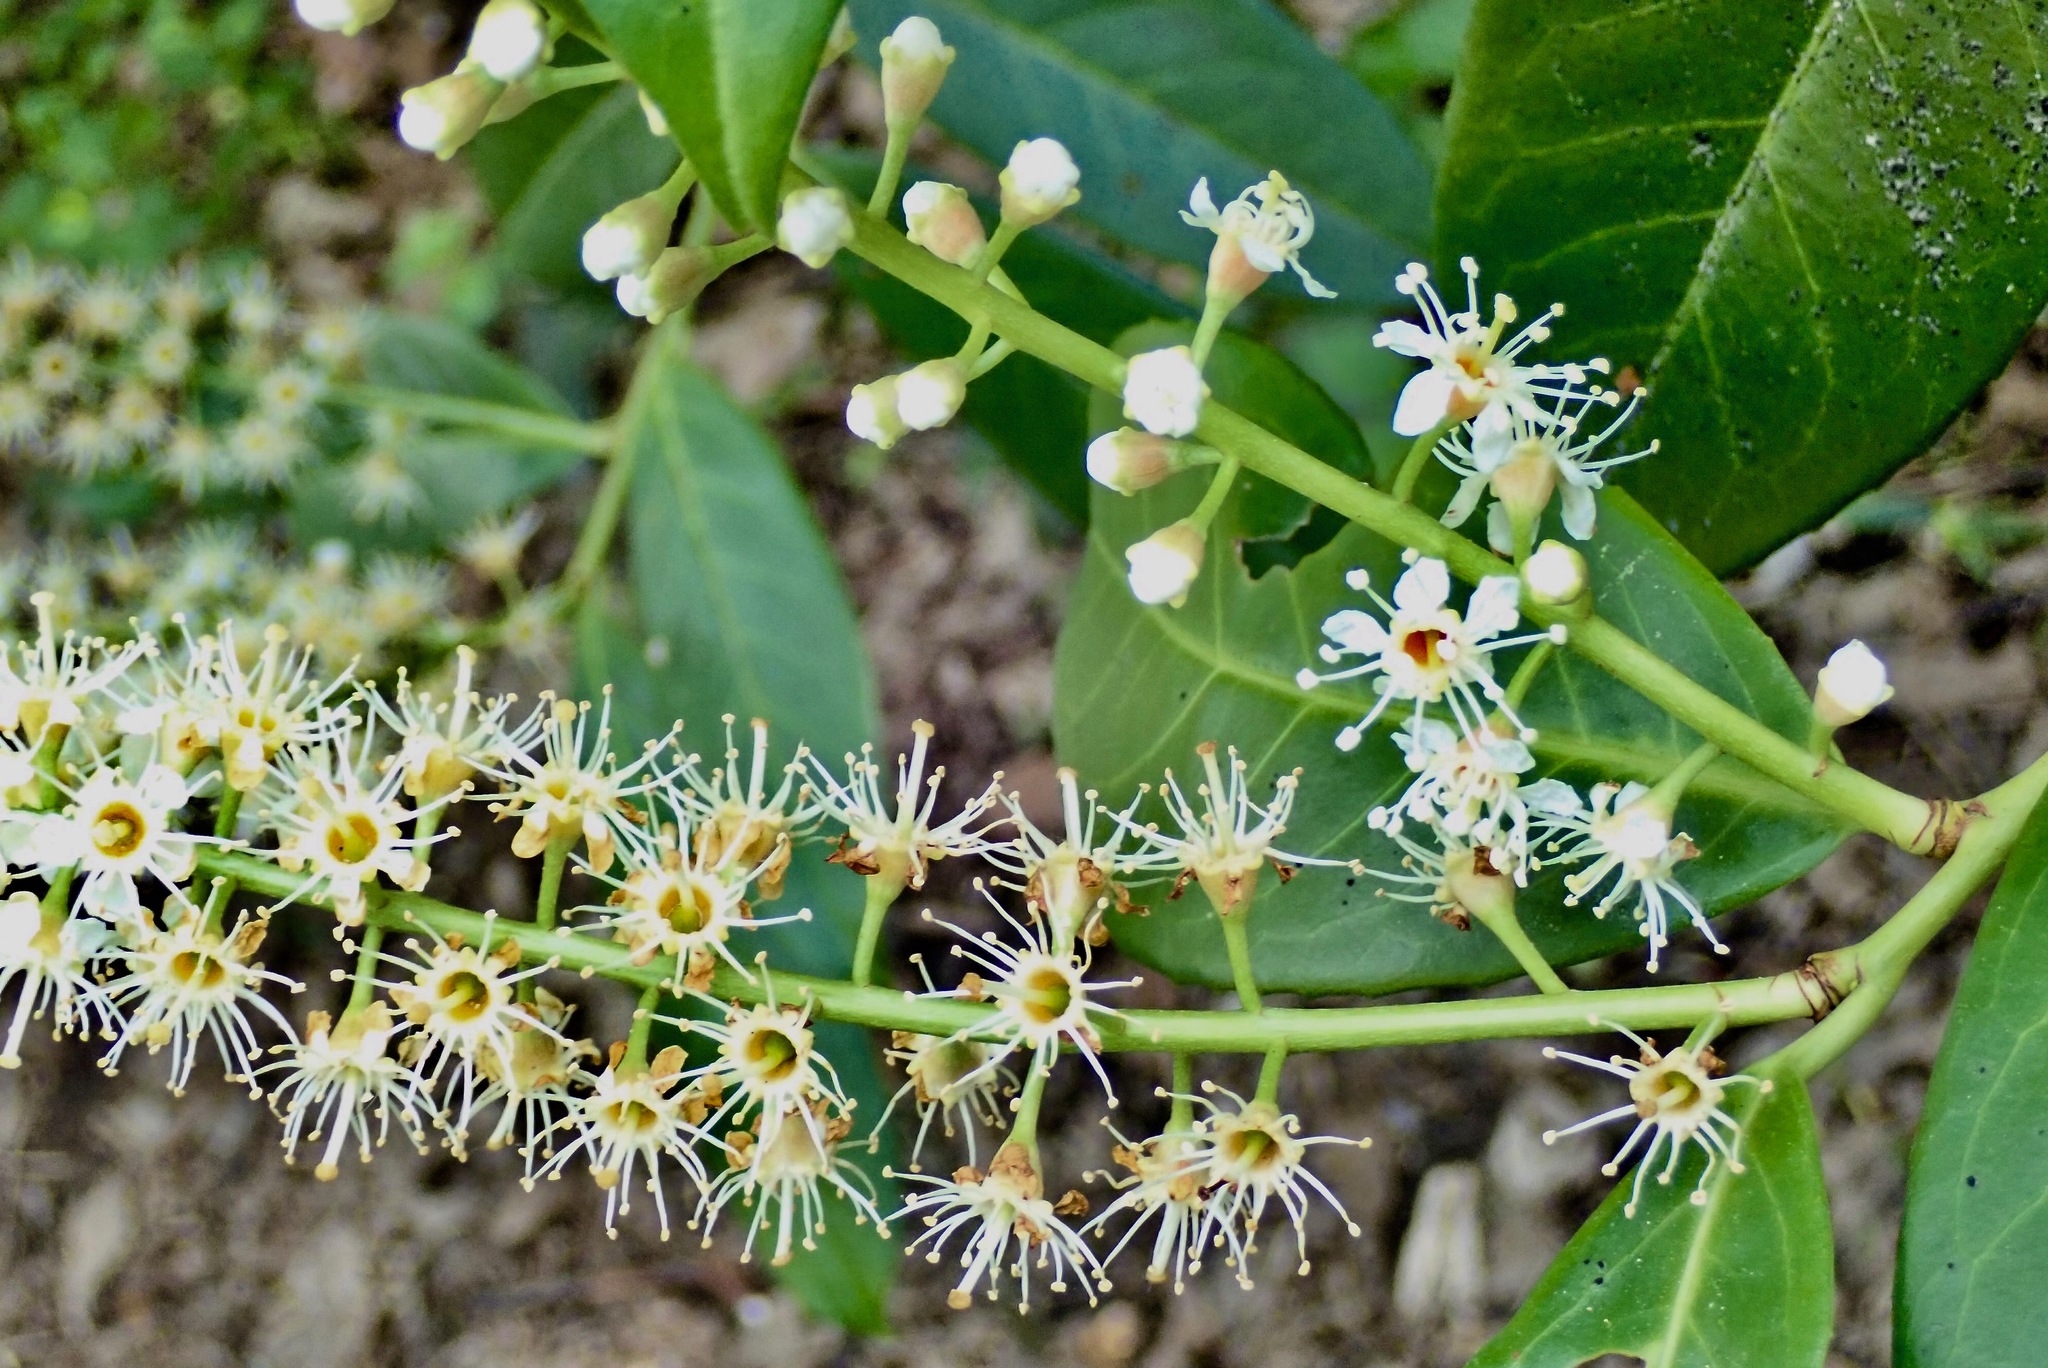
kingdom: Plantae
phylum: Tracheophyta
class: Magnoliopsida
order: Rosales
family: Rosaceae
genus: Prunus
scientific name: Prunus laurocerasus
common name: Cherry laurel
